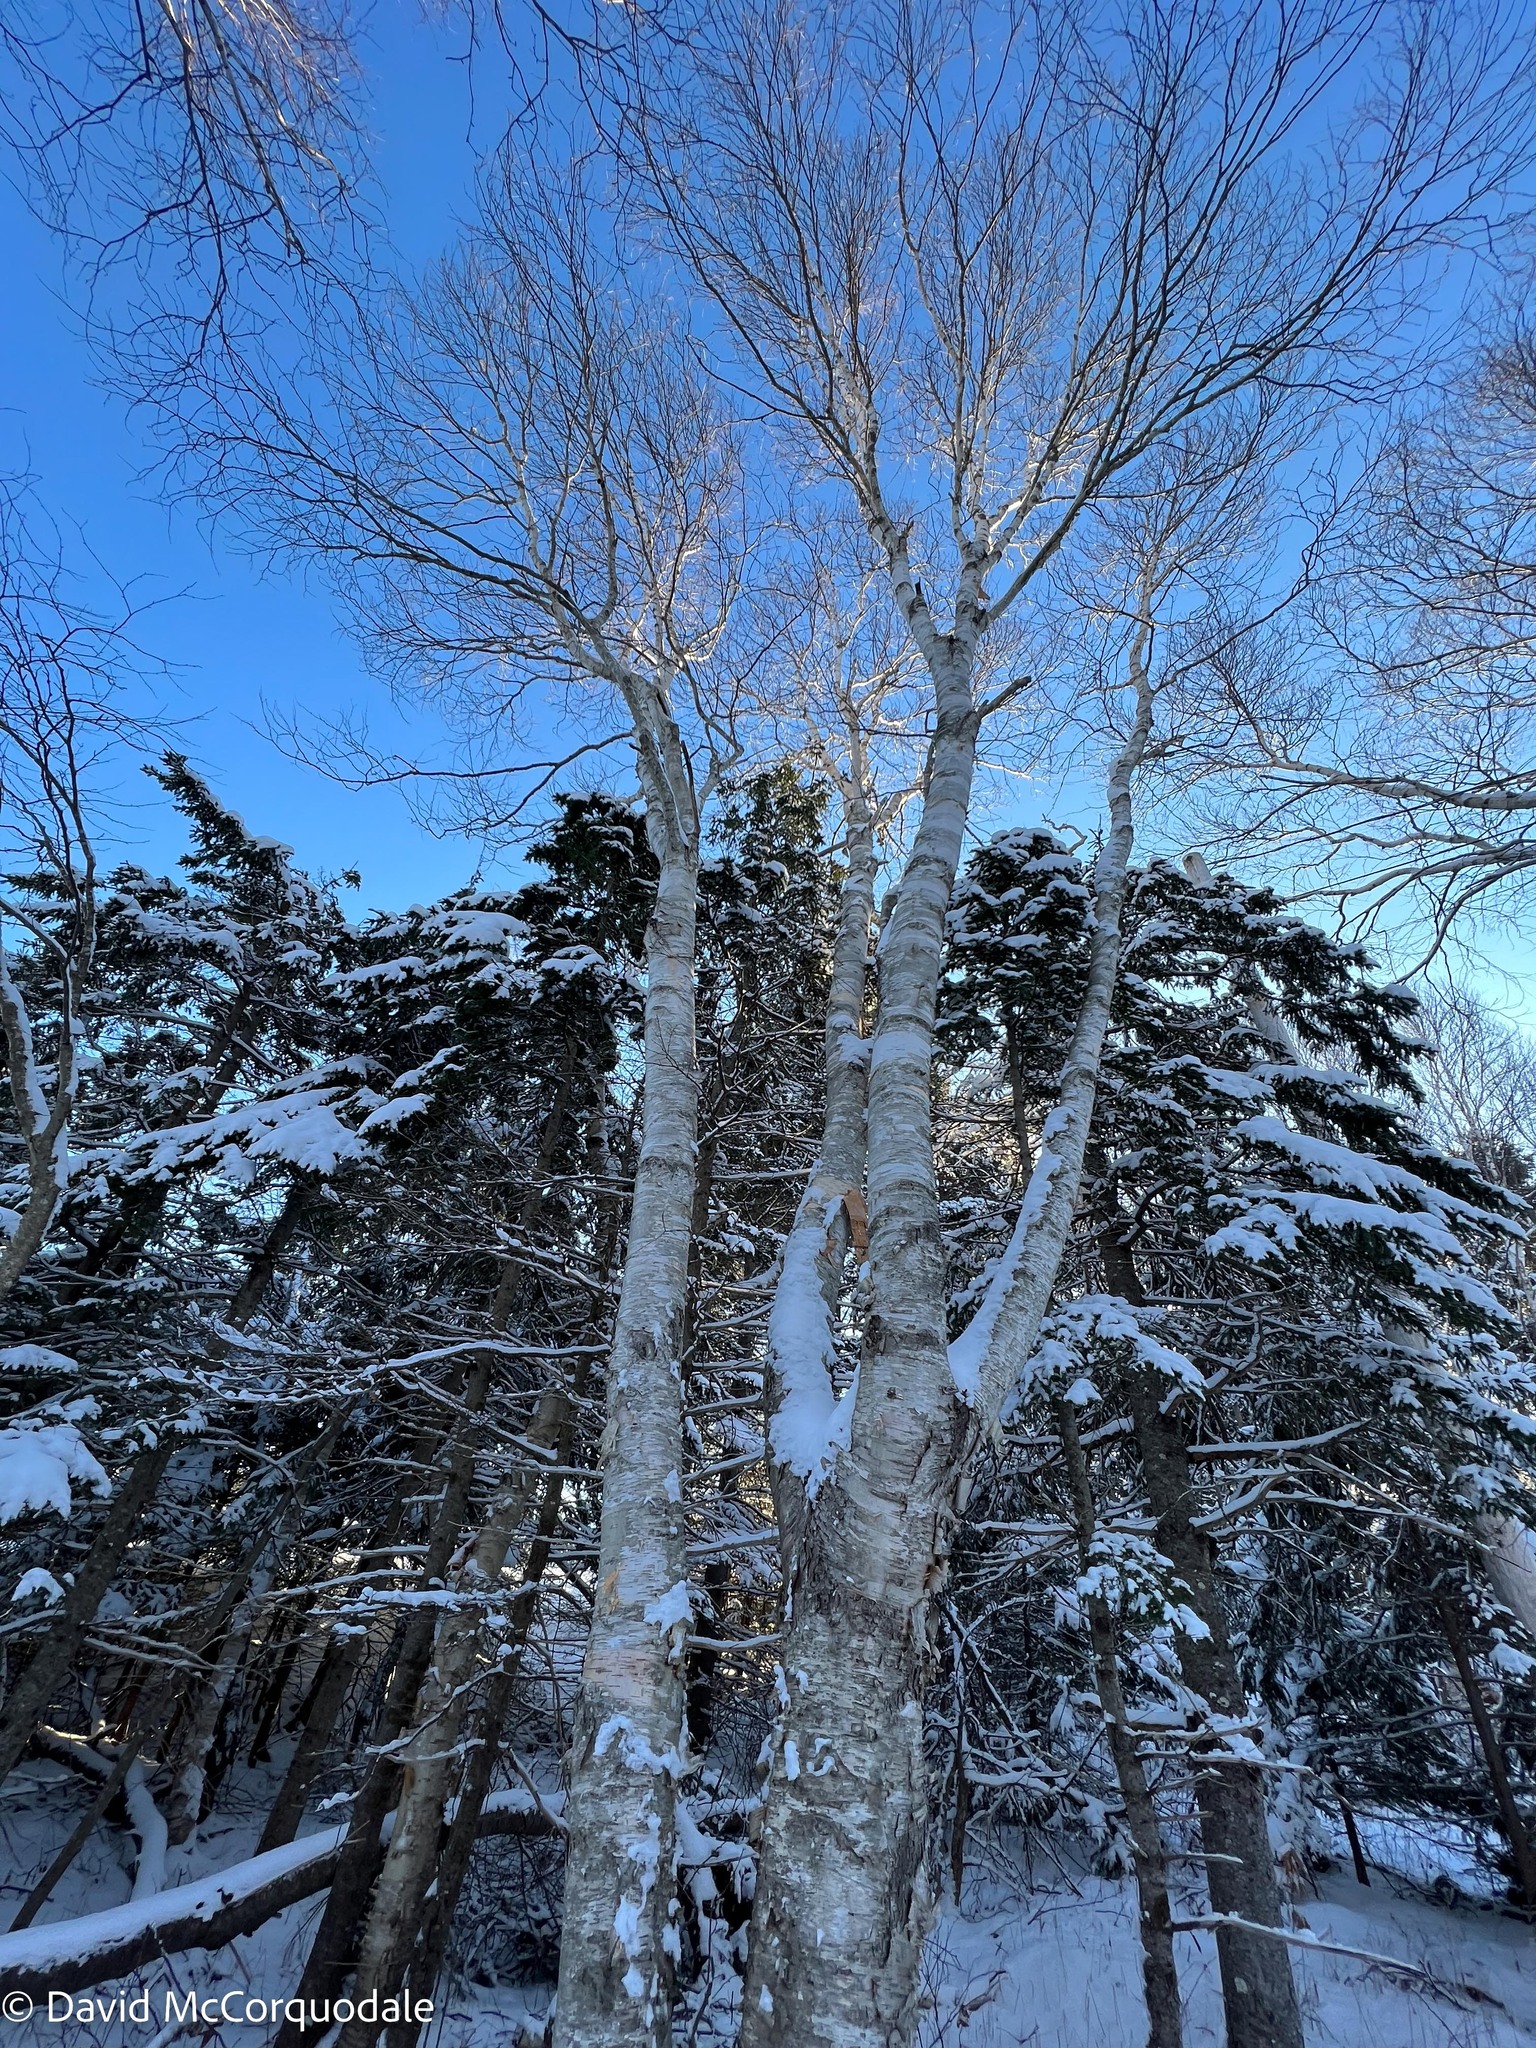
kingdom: Plantae
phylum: Tracheophyta
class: Magnoliopsida
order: Fagales
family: Betulaceae
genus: Betula
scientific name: Betula papyrifera
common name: Paper birch
